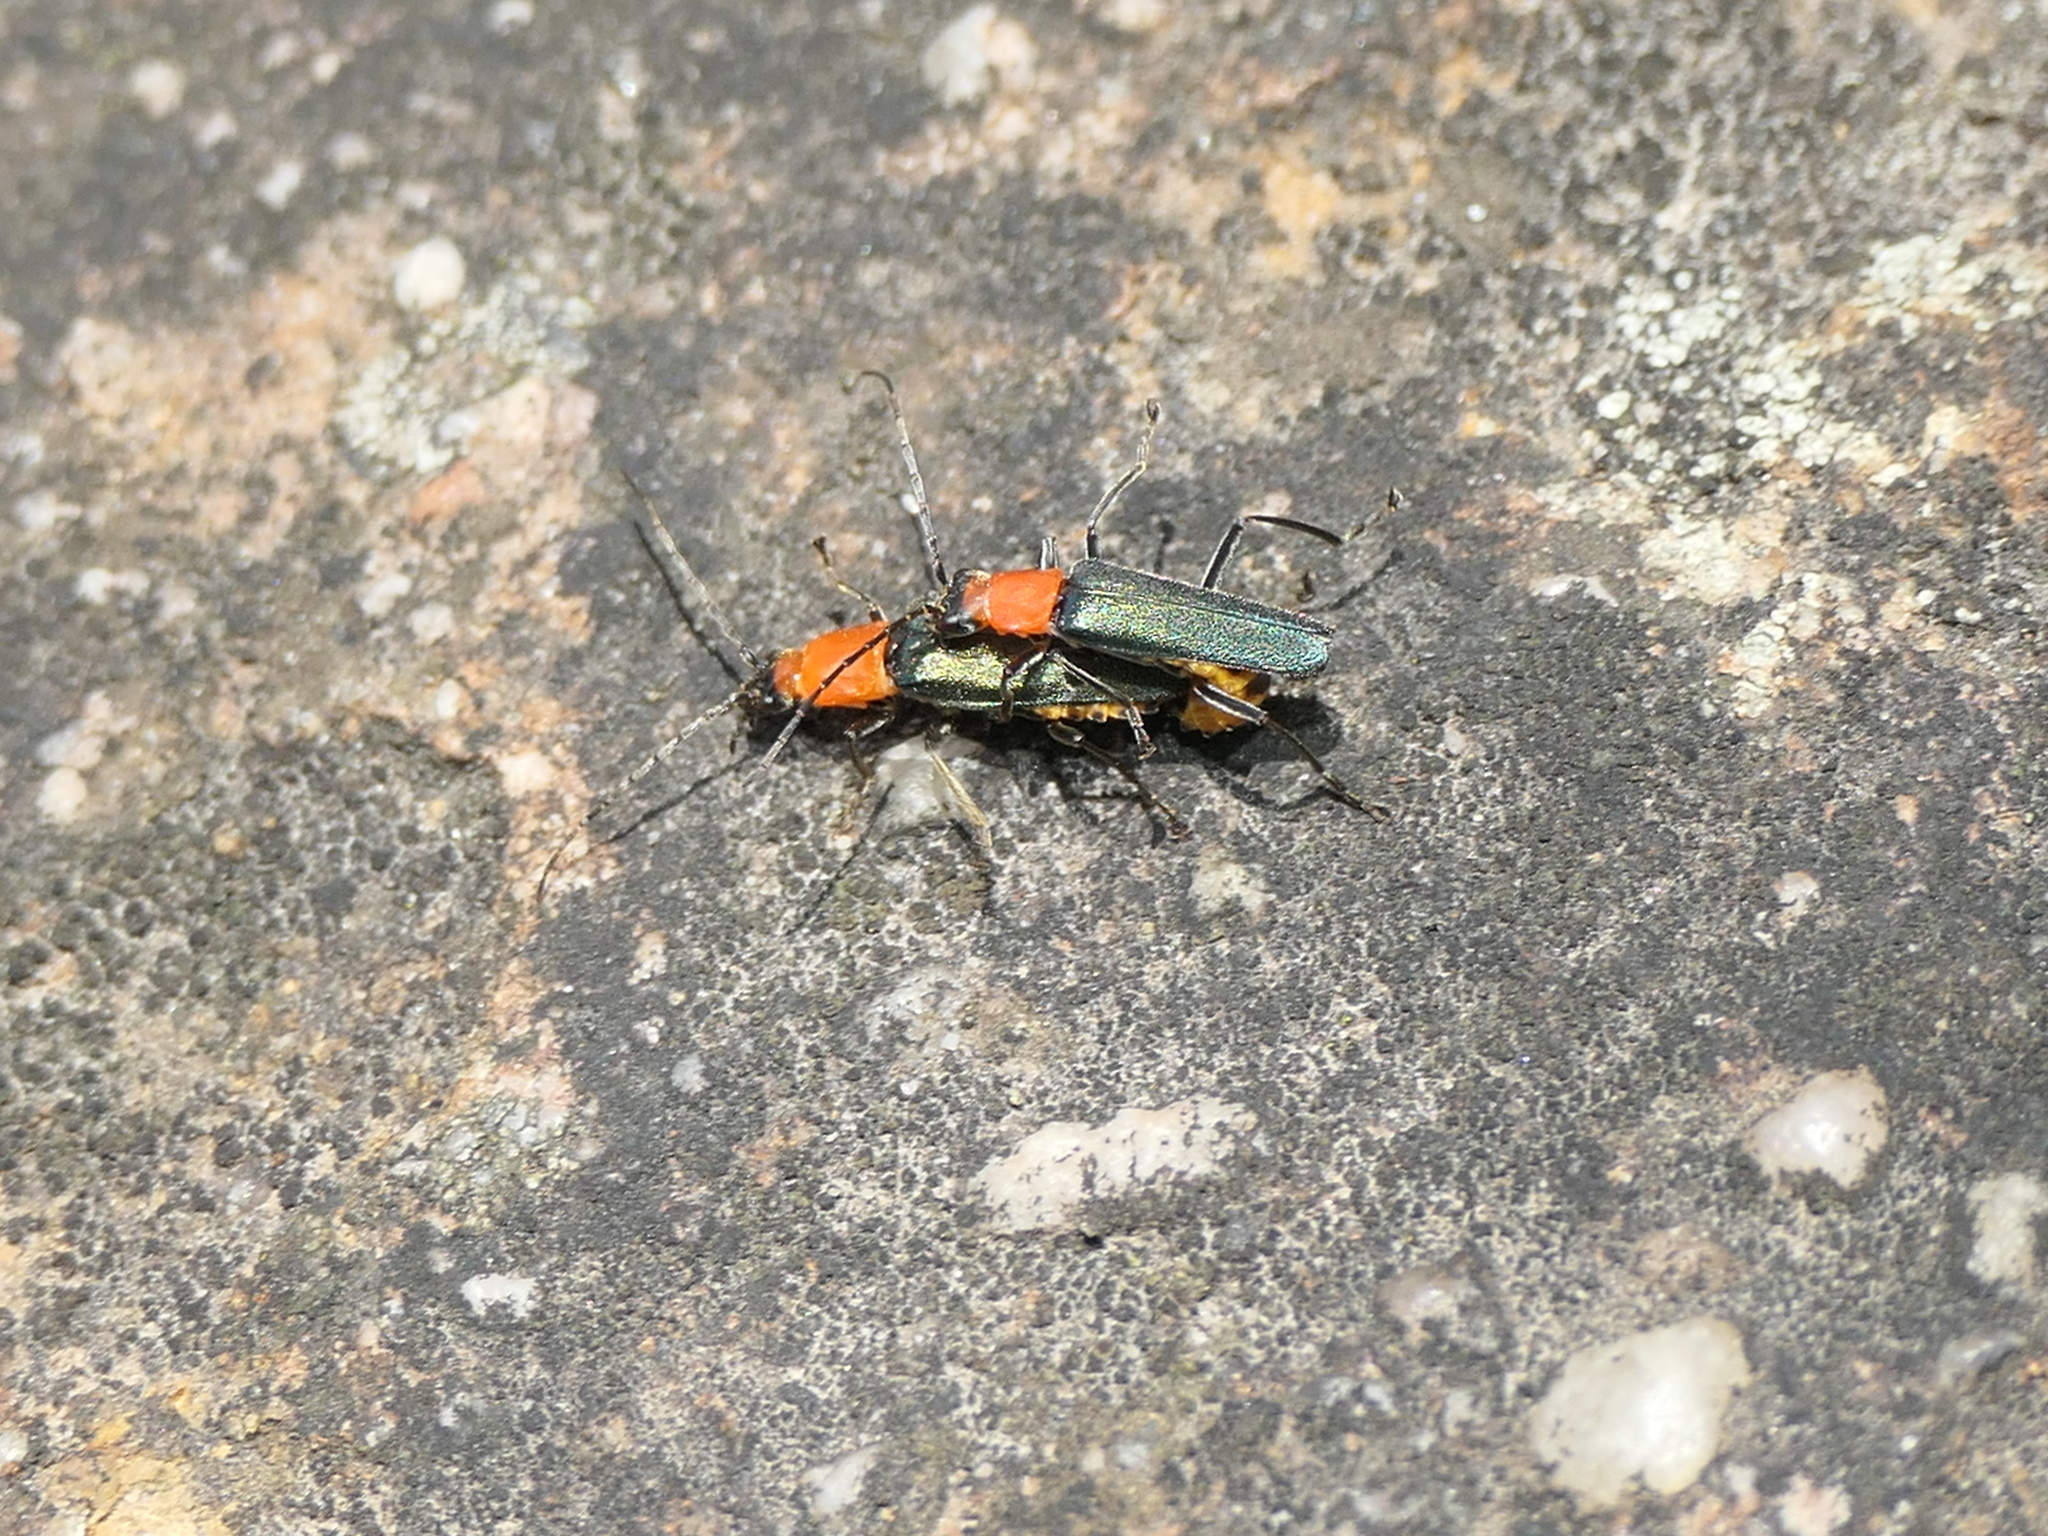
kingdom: Animalia
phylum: Arthropoda
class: Insecta
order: Coleoptera
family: Cantharidae
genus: Chauliognathus
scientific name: Chauliognathus
